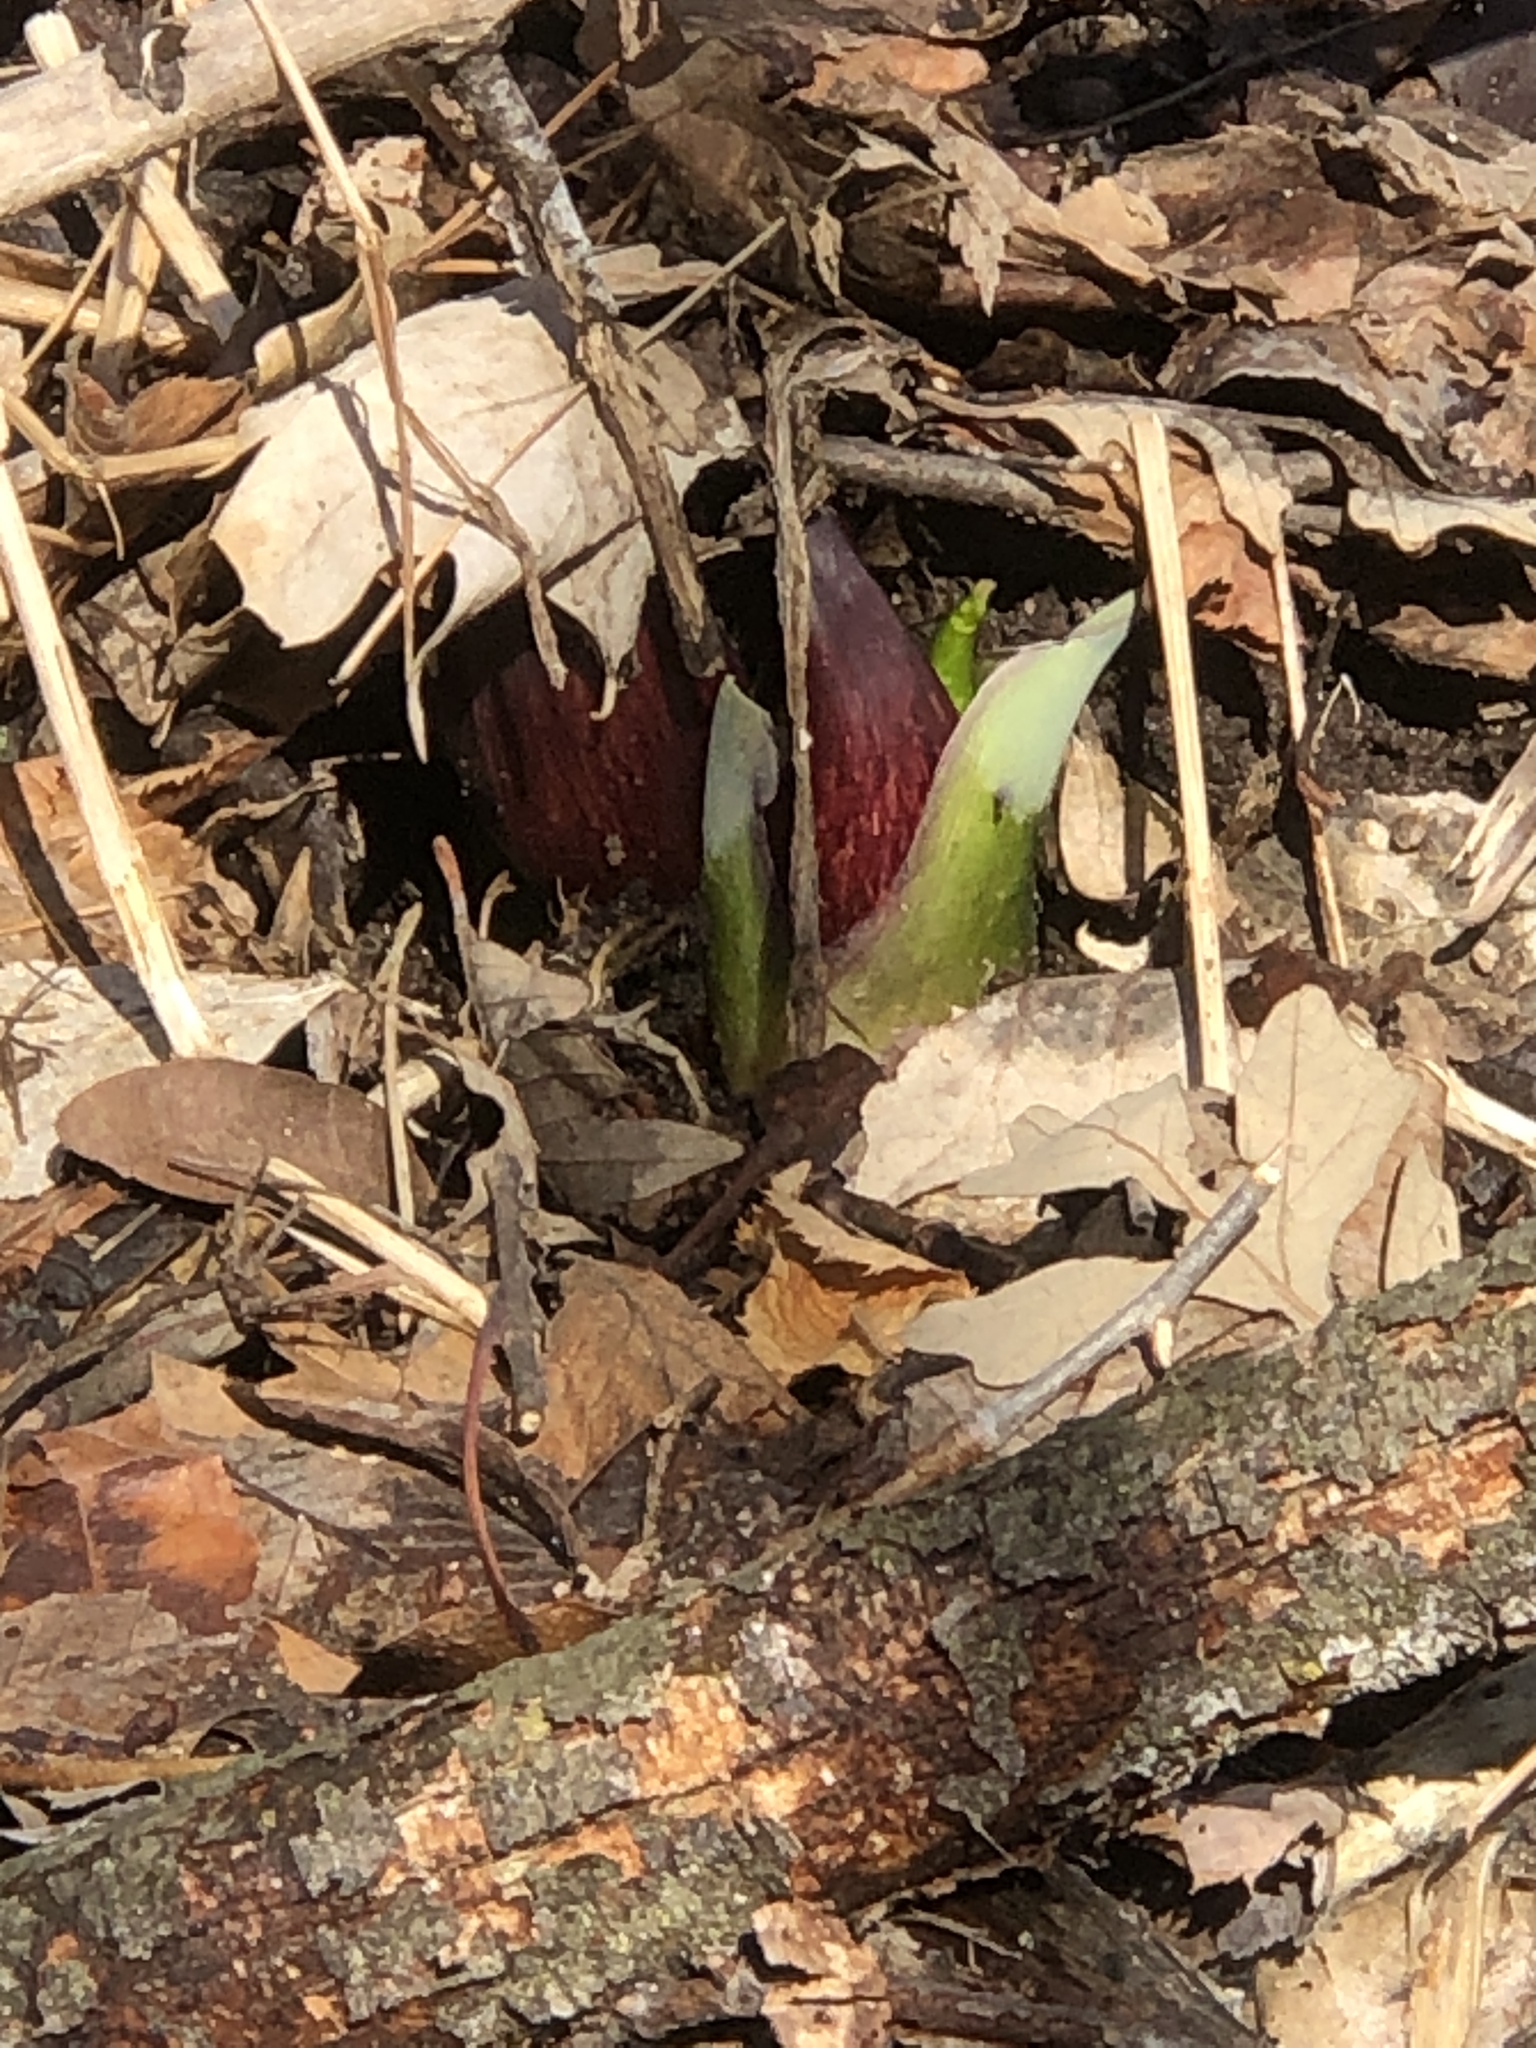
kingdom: Plantae
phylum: Tracheophyta
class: Liliopsida
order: Alismatales
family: Araceae
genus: Symplocarpus
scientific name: Symplocarpus foetidus
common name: Eastern skunk cabbage
